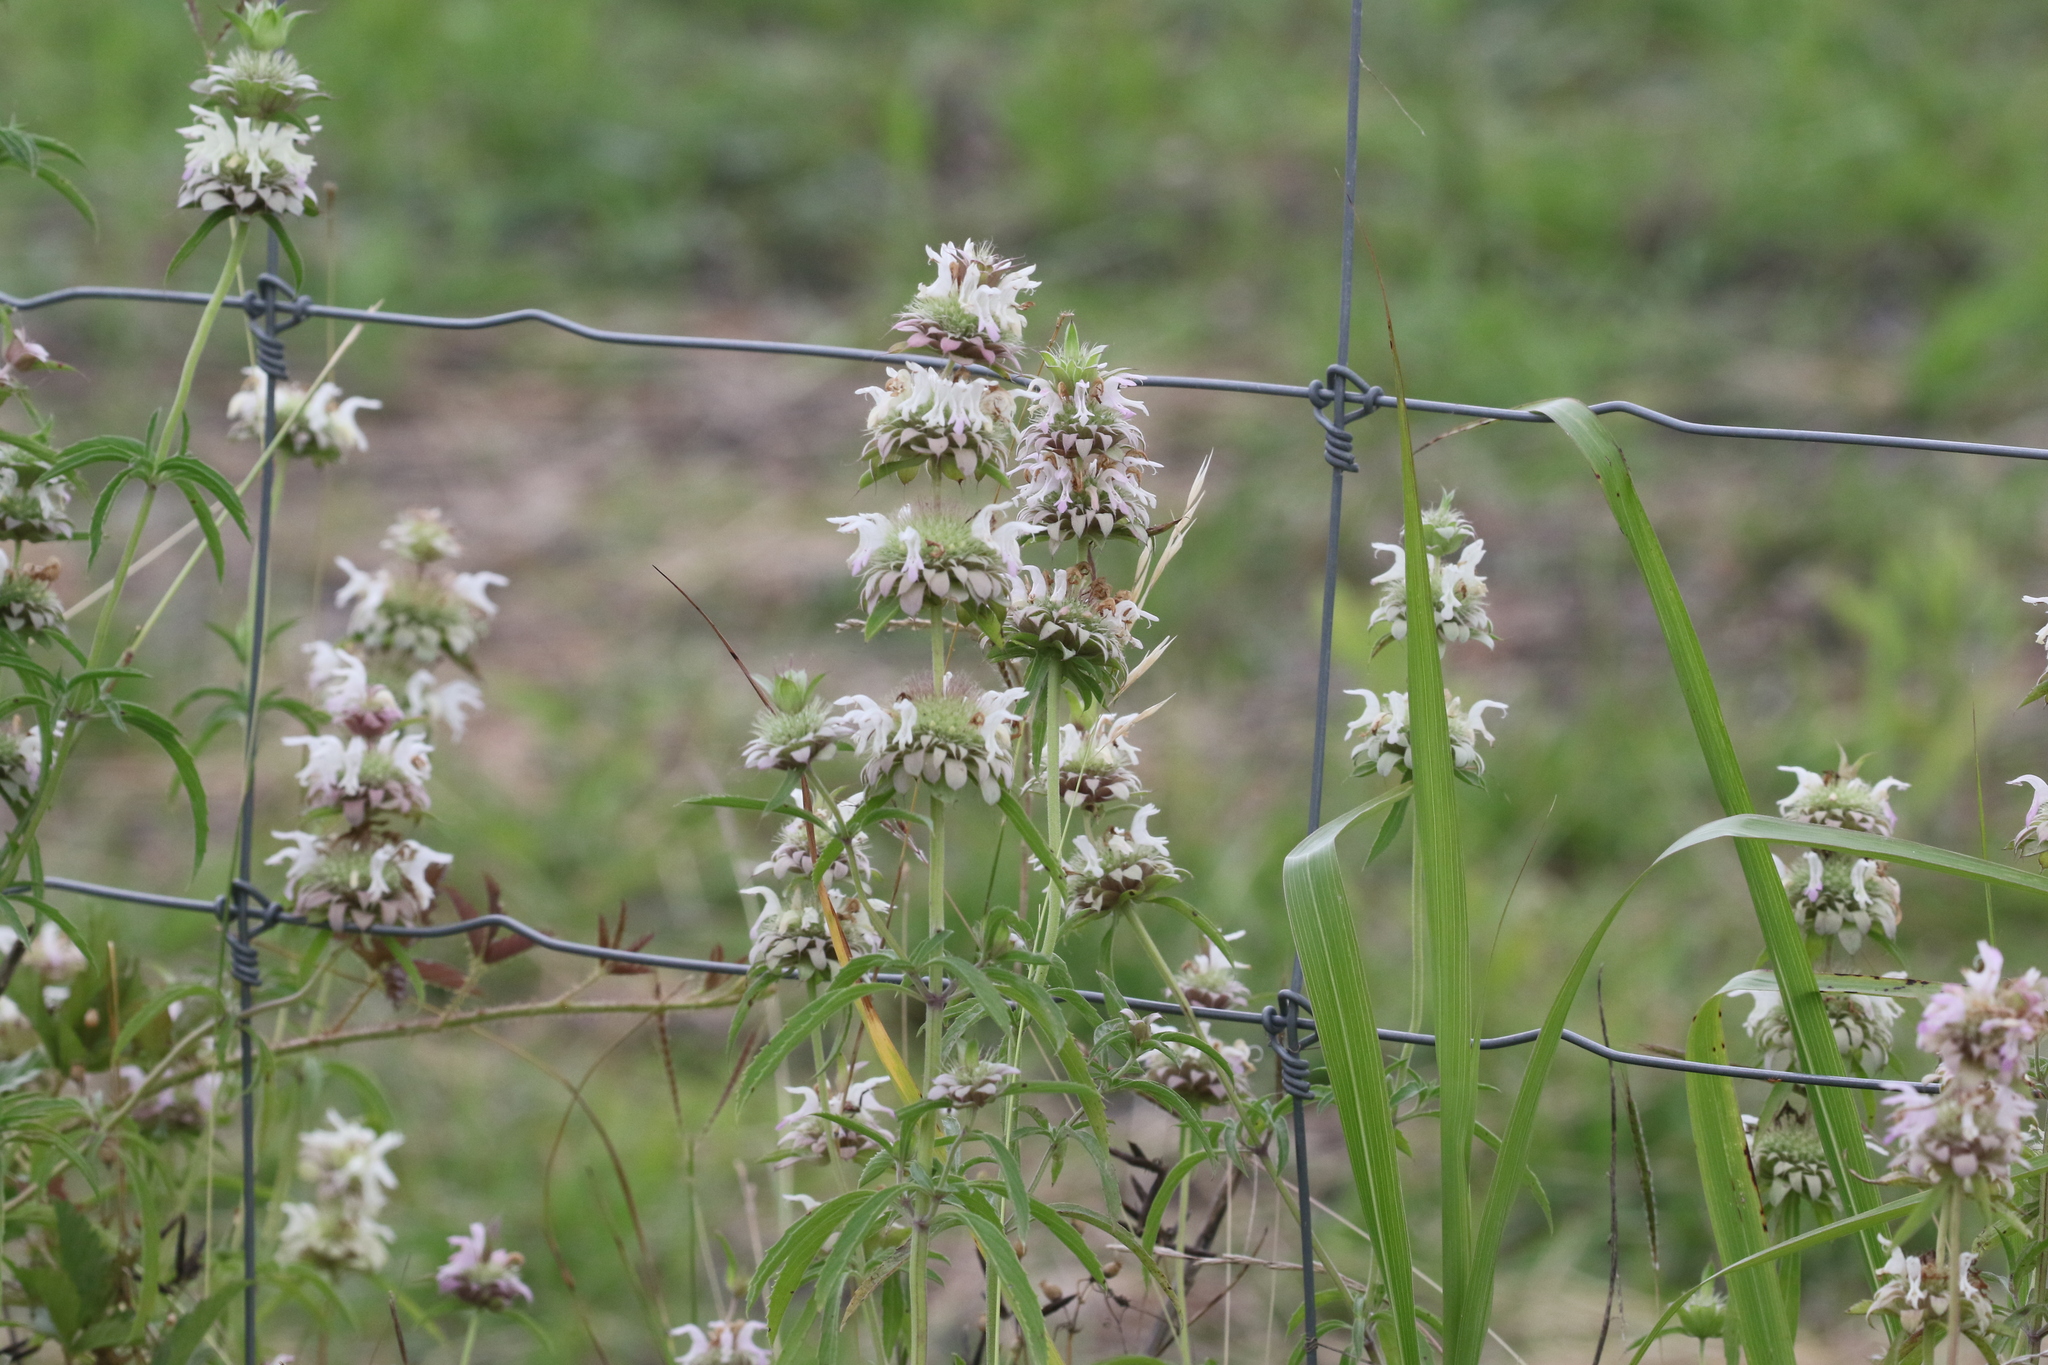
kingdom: Plantae
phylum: Tracheophyta
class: Magnoliopsida
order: Lamiales
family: Lamiaceae
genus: Monarda
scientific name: Monarda citriodora
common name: Lemon beebalm
